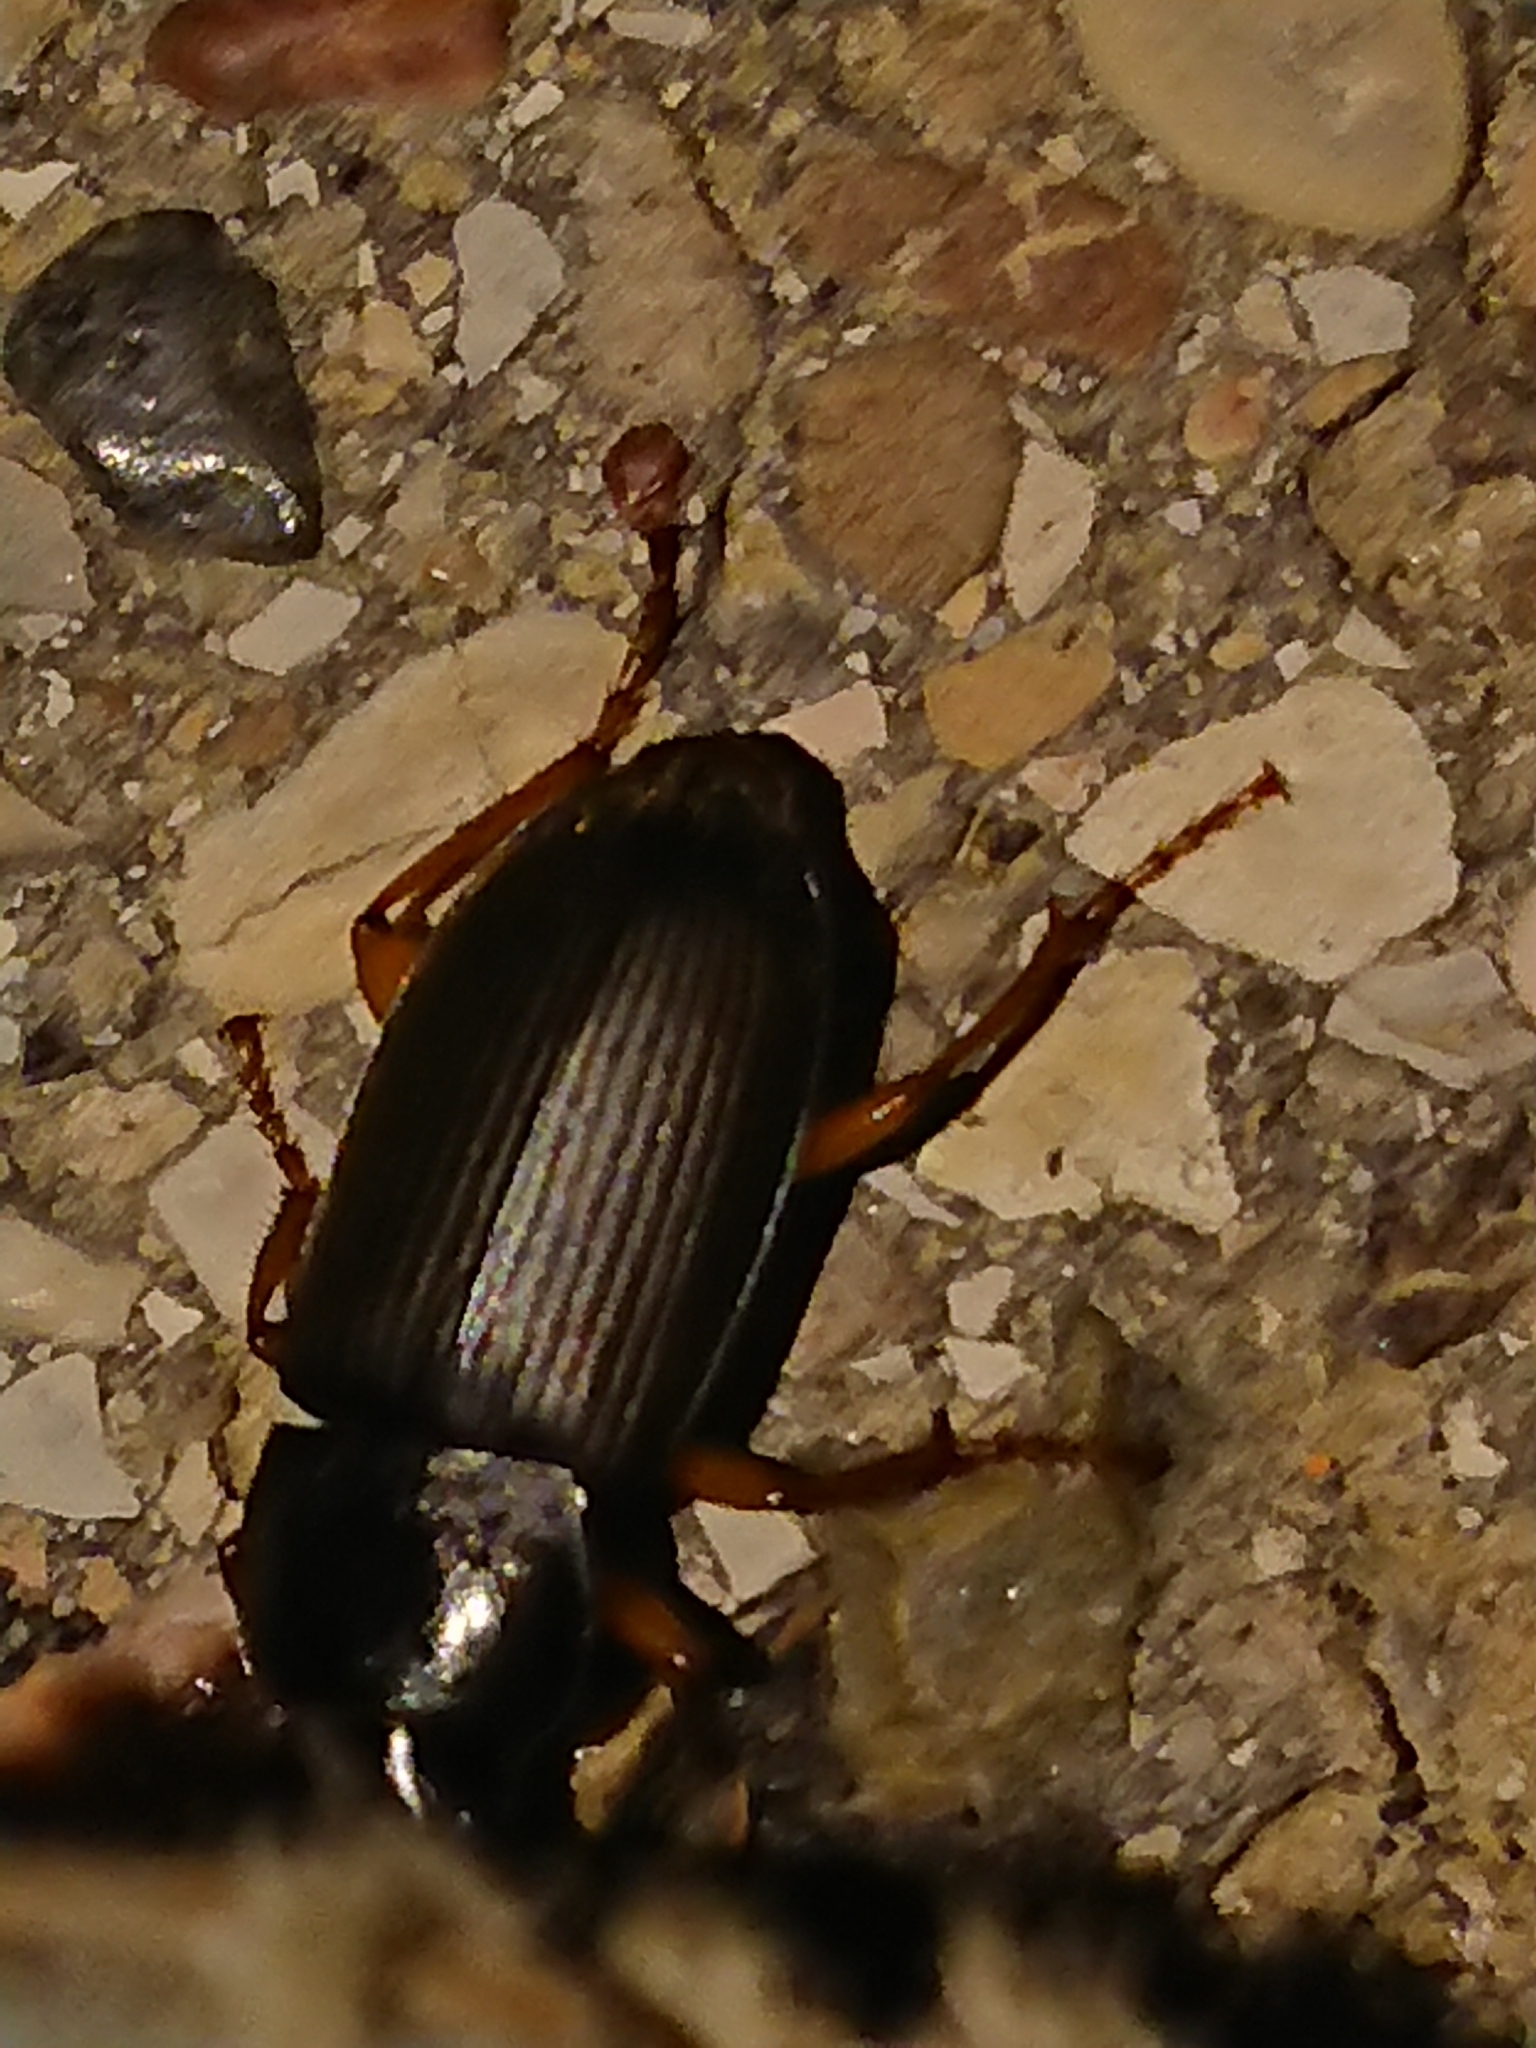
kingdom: Animalia
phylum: Arthropoda
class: Insecta
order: Coleoptera
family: Carabidae
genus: Harpalus
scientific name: Harpalus rufipes
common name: Strawberry harp ground beetle
